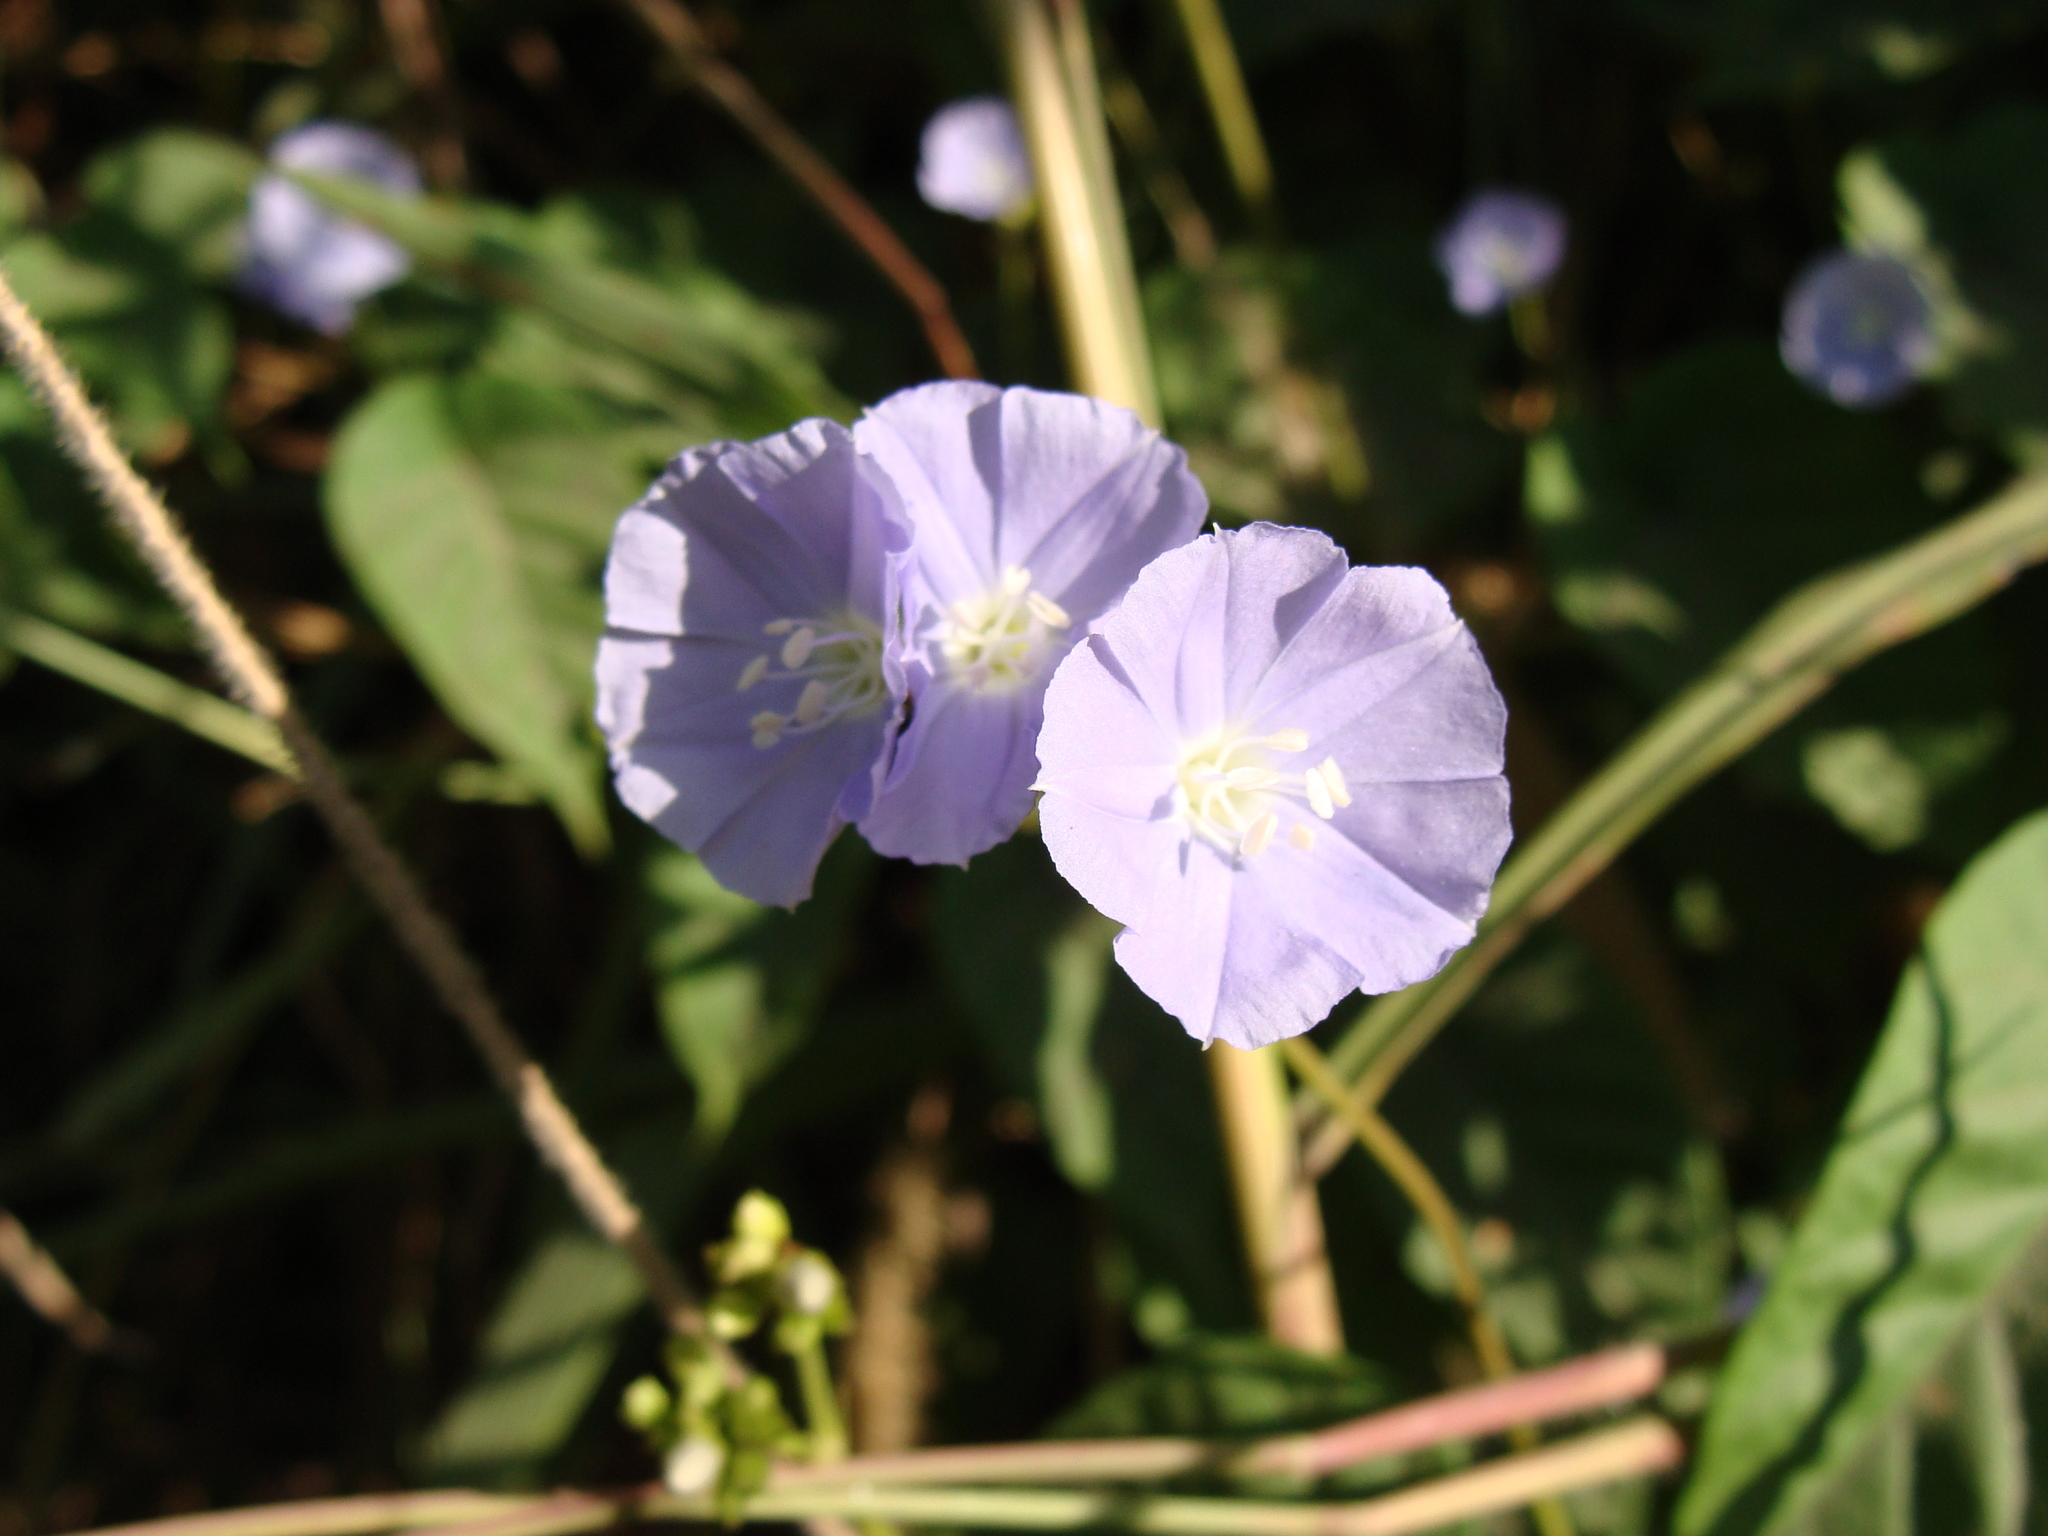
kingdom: Plantae
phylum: Tracheophyta
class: Magnoliopsida
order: Solanales
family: Convolvulaceae
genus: Jacquemontia
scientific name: Jacquemontia oaxacana
